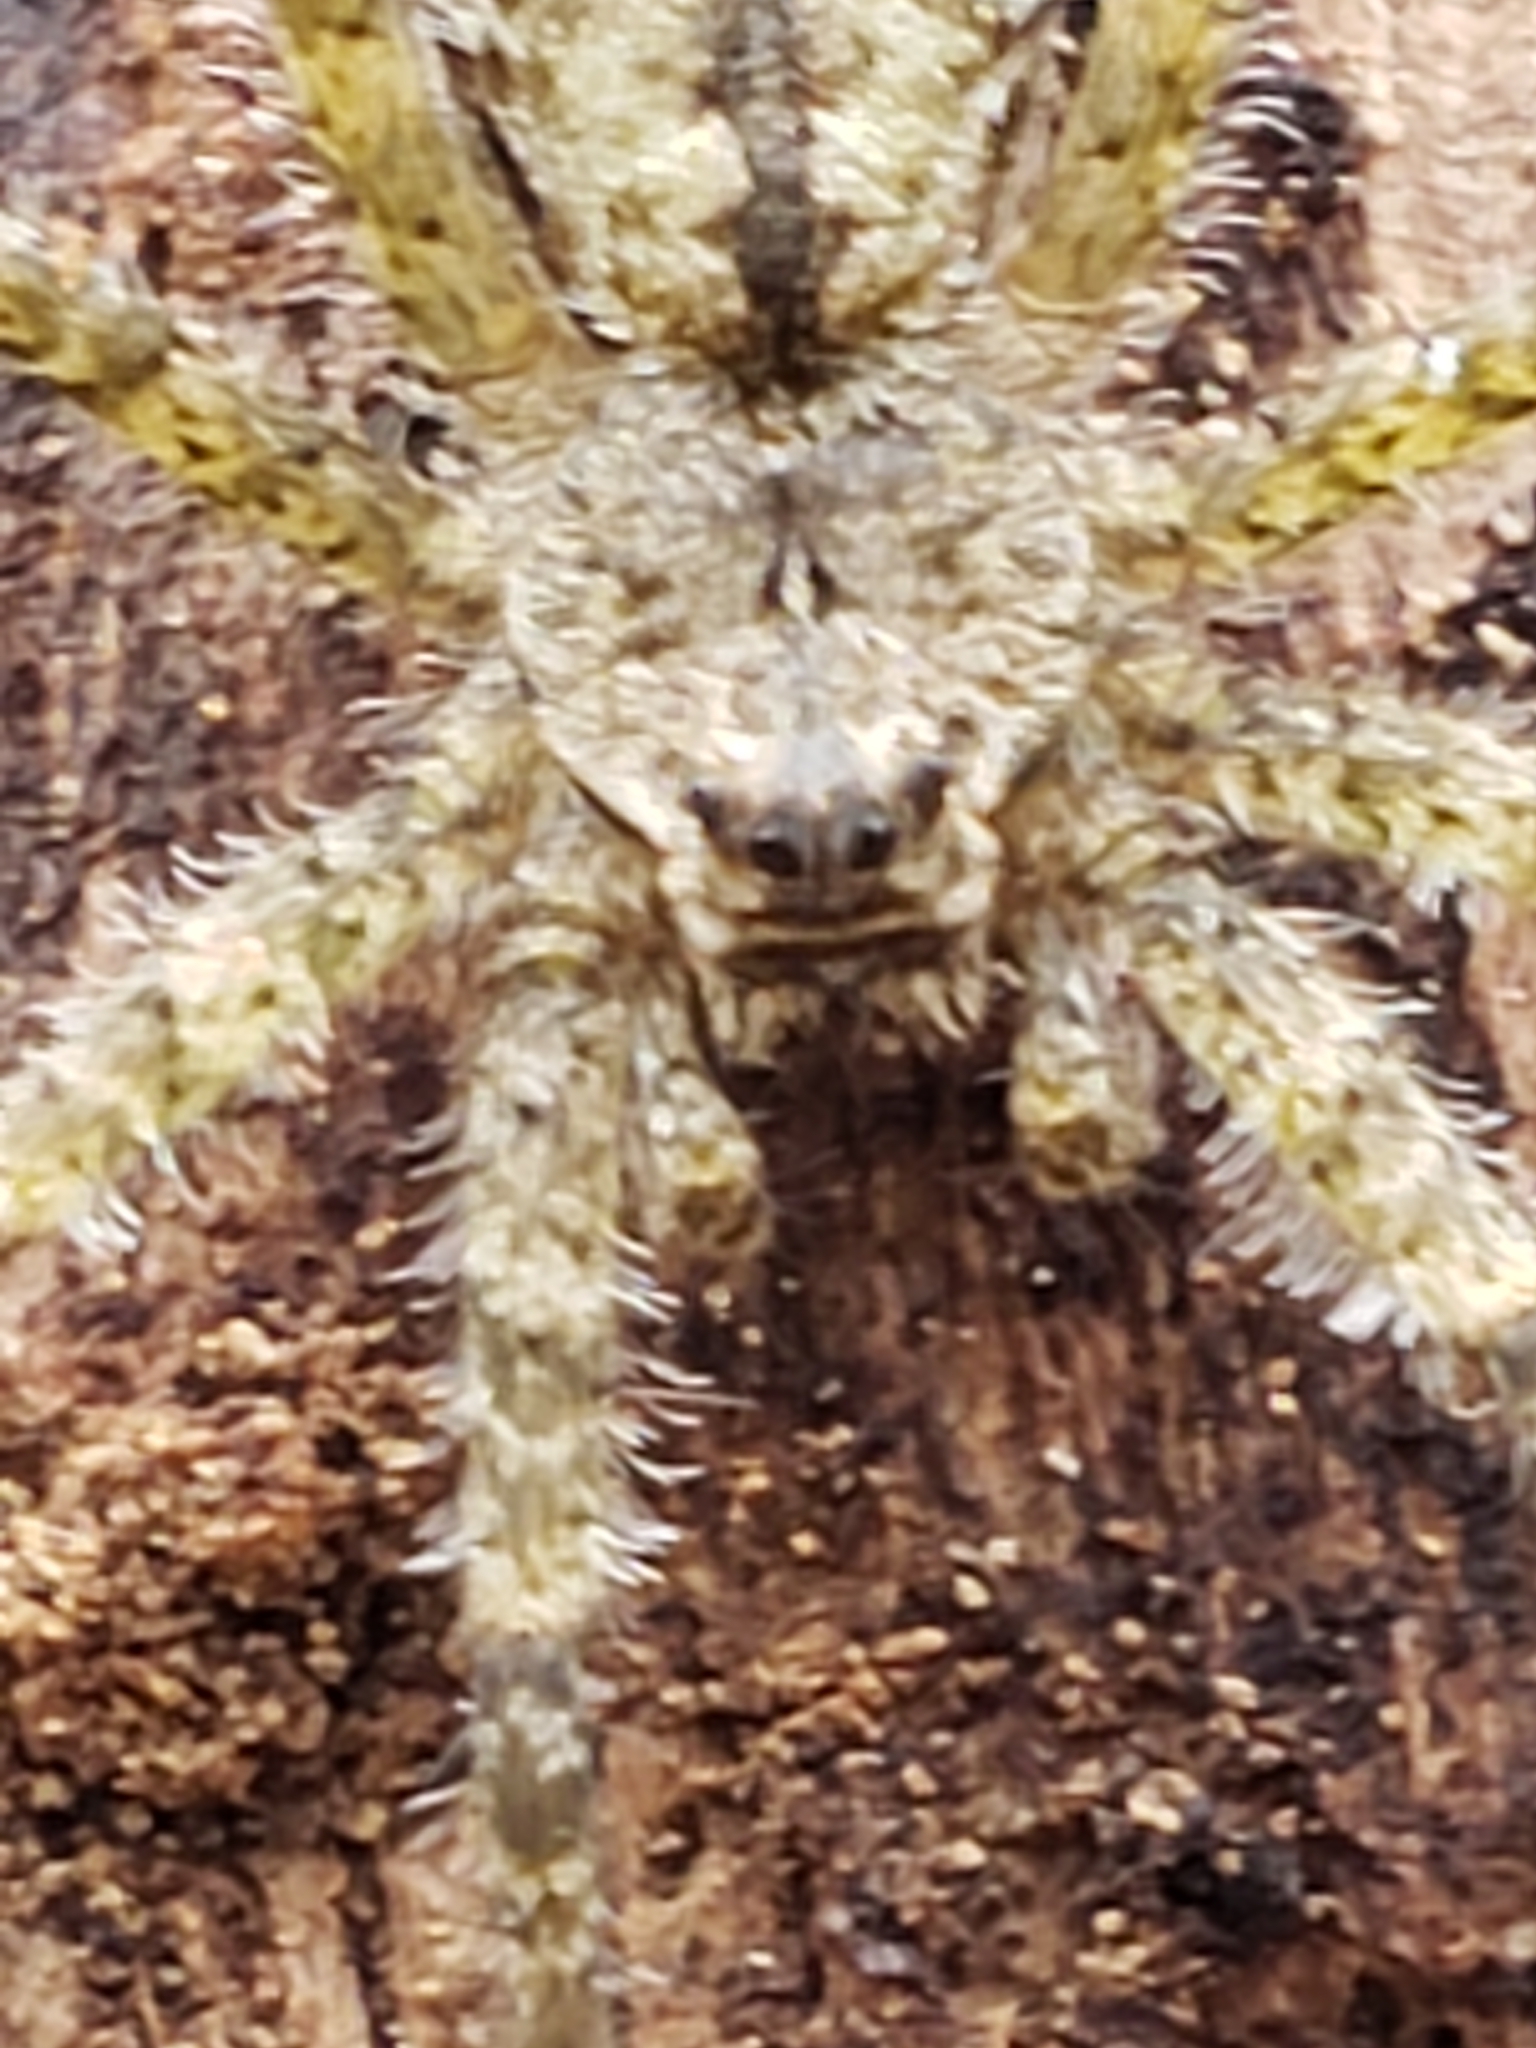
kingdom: Animalia
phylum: Arthropoda
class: Arachnida
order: Araneae
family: Pisauridae
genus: Dolomedes
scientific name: Dolomedes albineus
